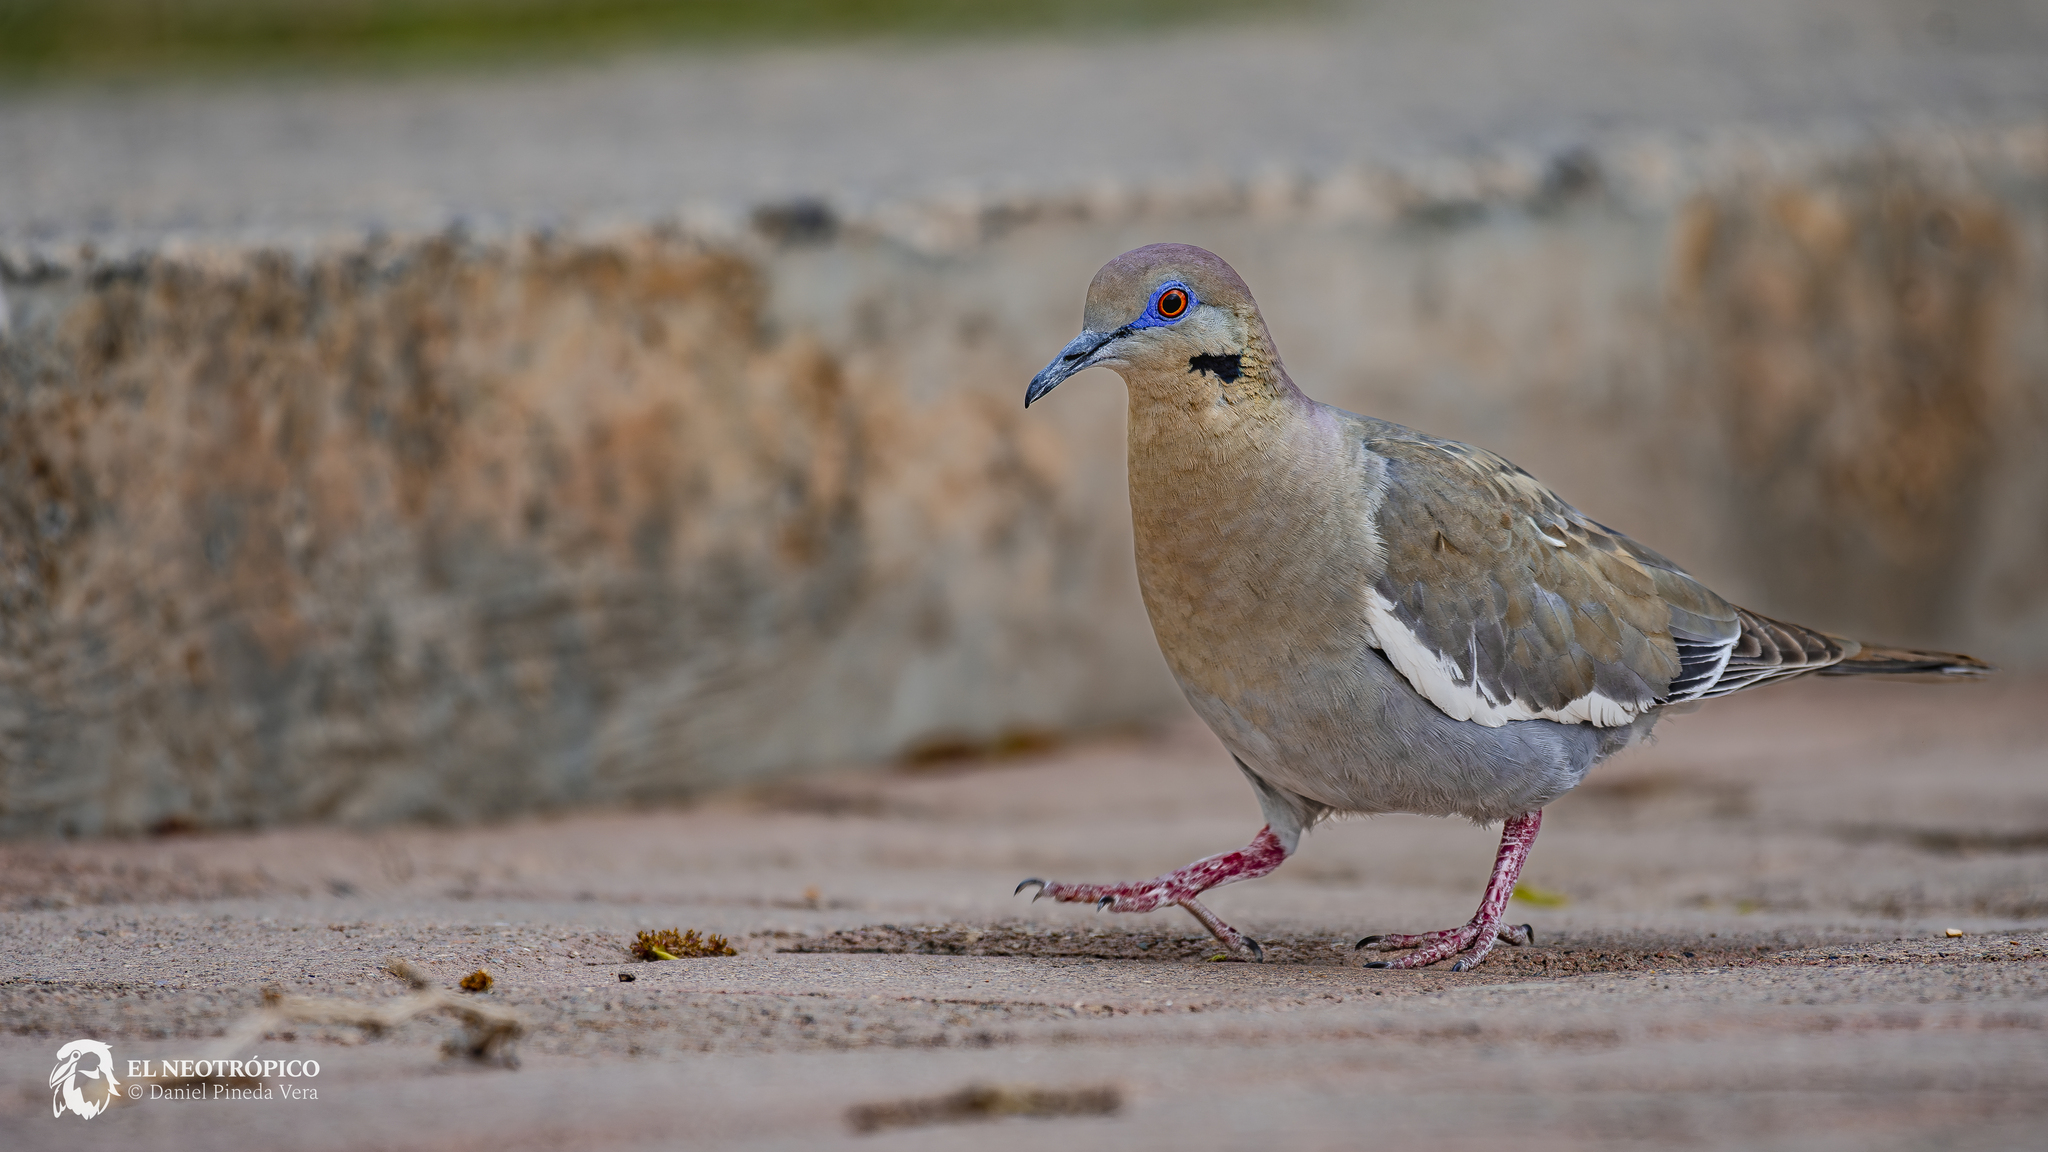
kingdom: Animalia
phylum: Chordata
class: Aves
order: Columbiformes
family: Columbidae
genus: Zenaida
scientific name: Zenaida asiatica
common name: White-winged dove
